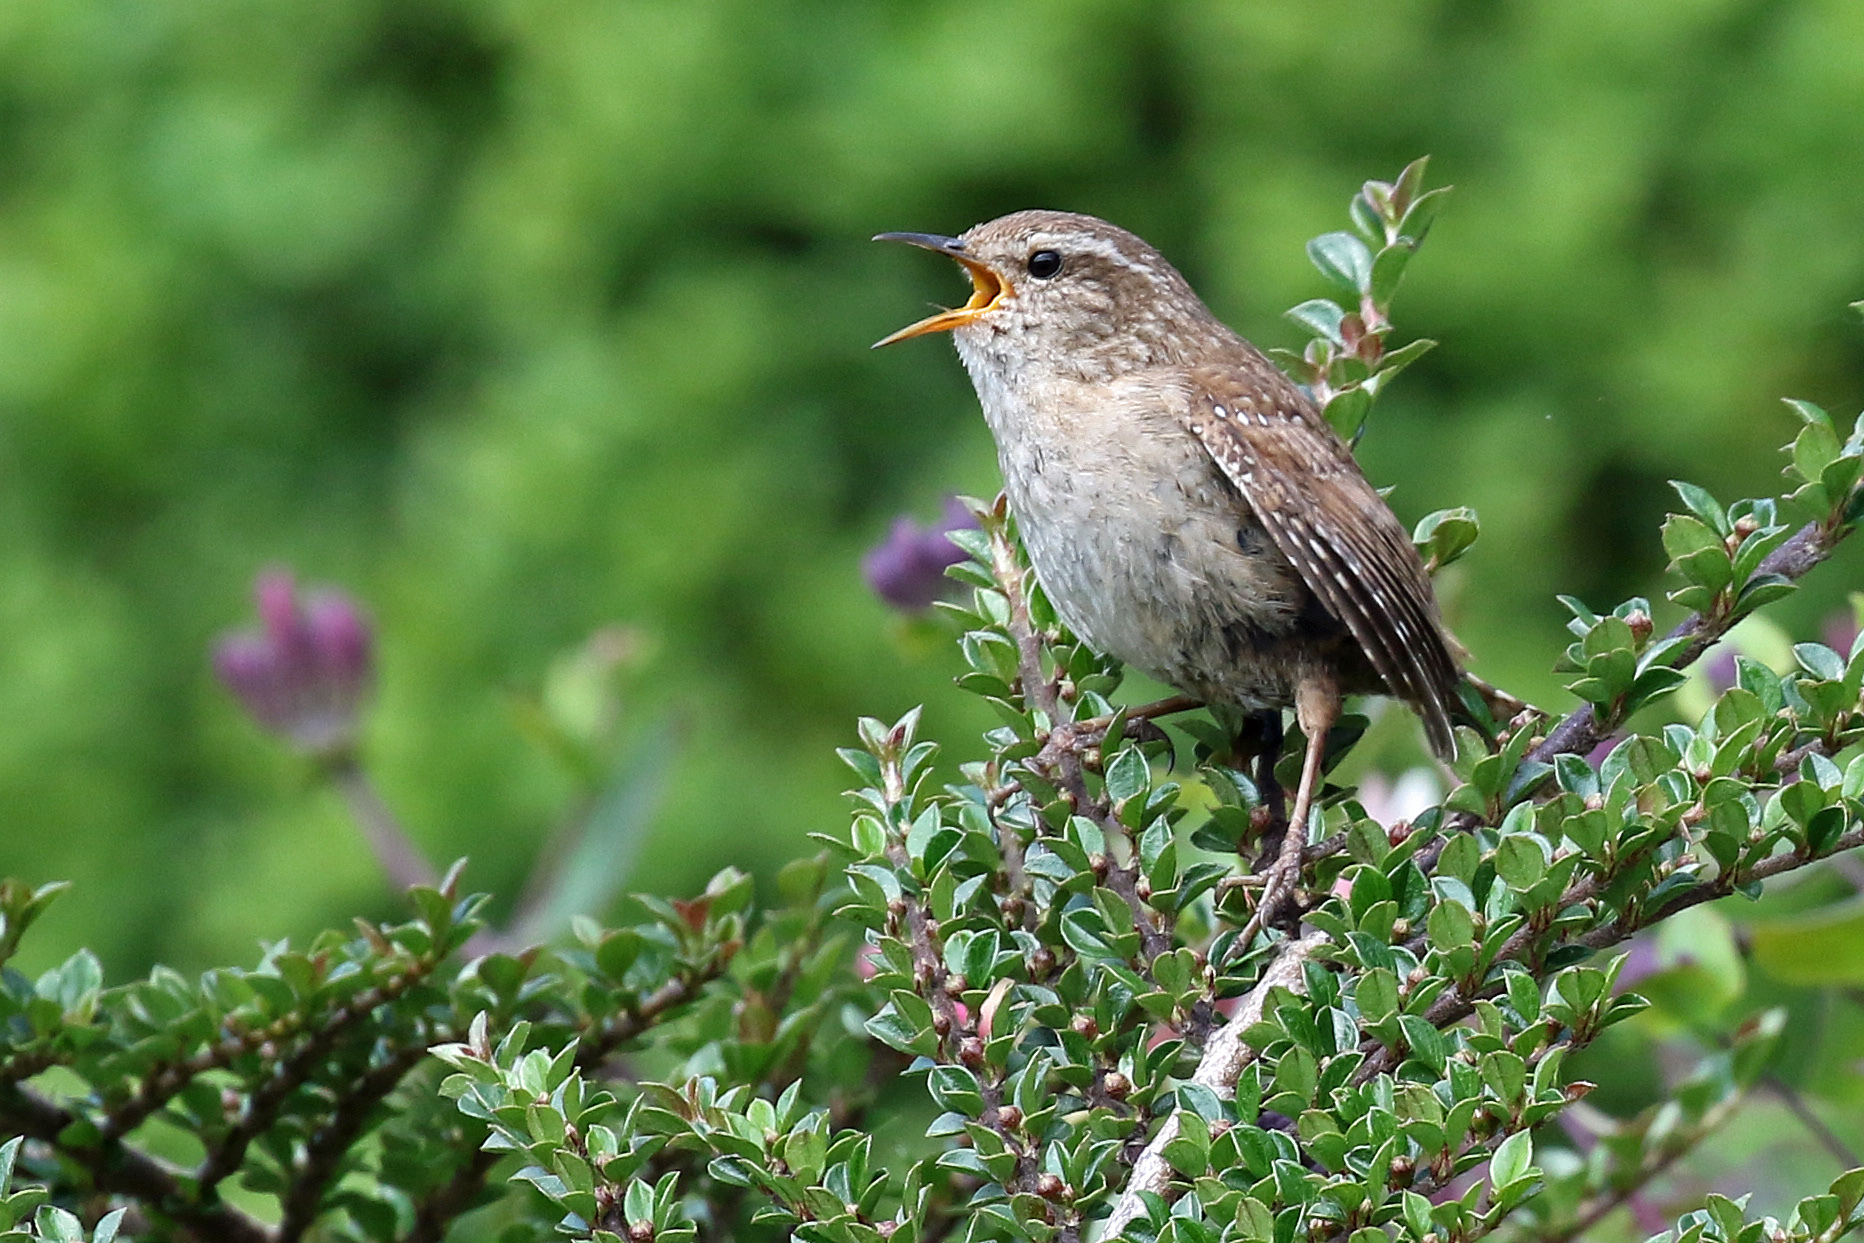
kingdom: Animalia
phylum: Chordata
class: Aves
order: Passeriformes
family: Troglodytidae
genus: Troglodytes
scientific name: Troglodytes troglodytes
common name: Eurasian wren
